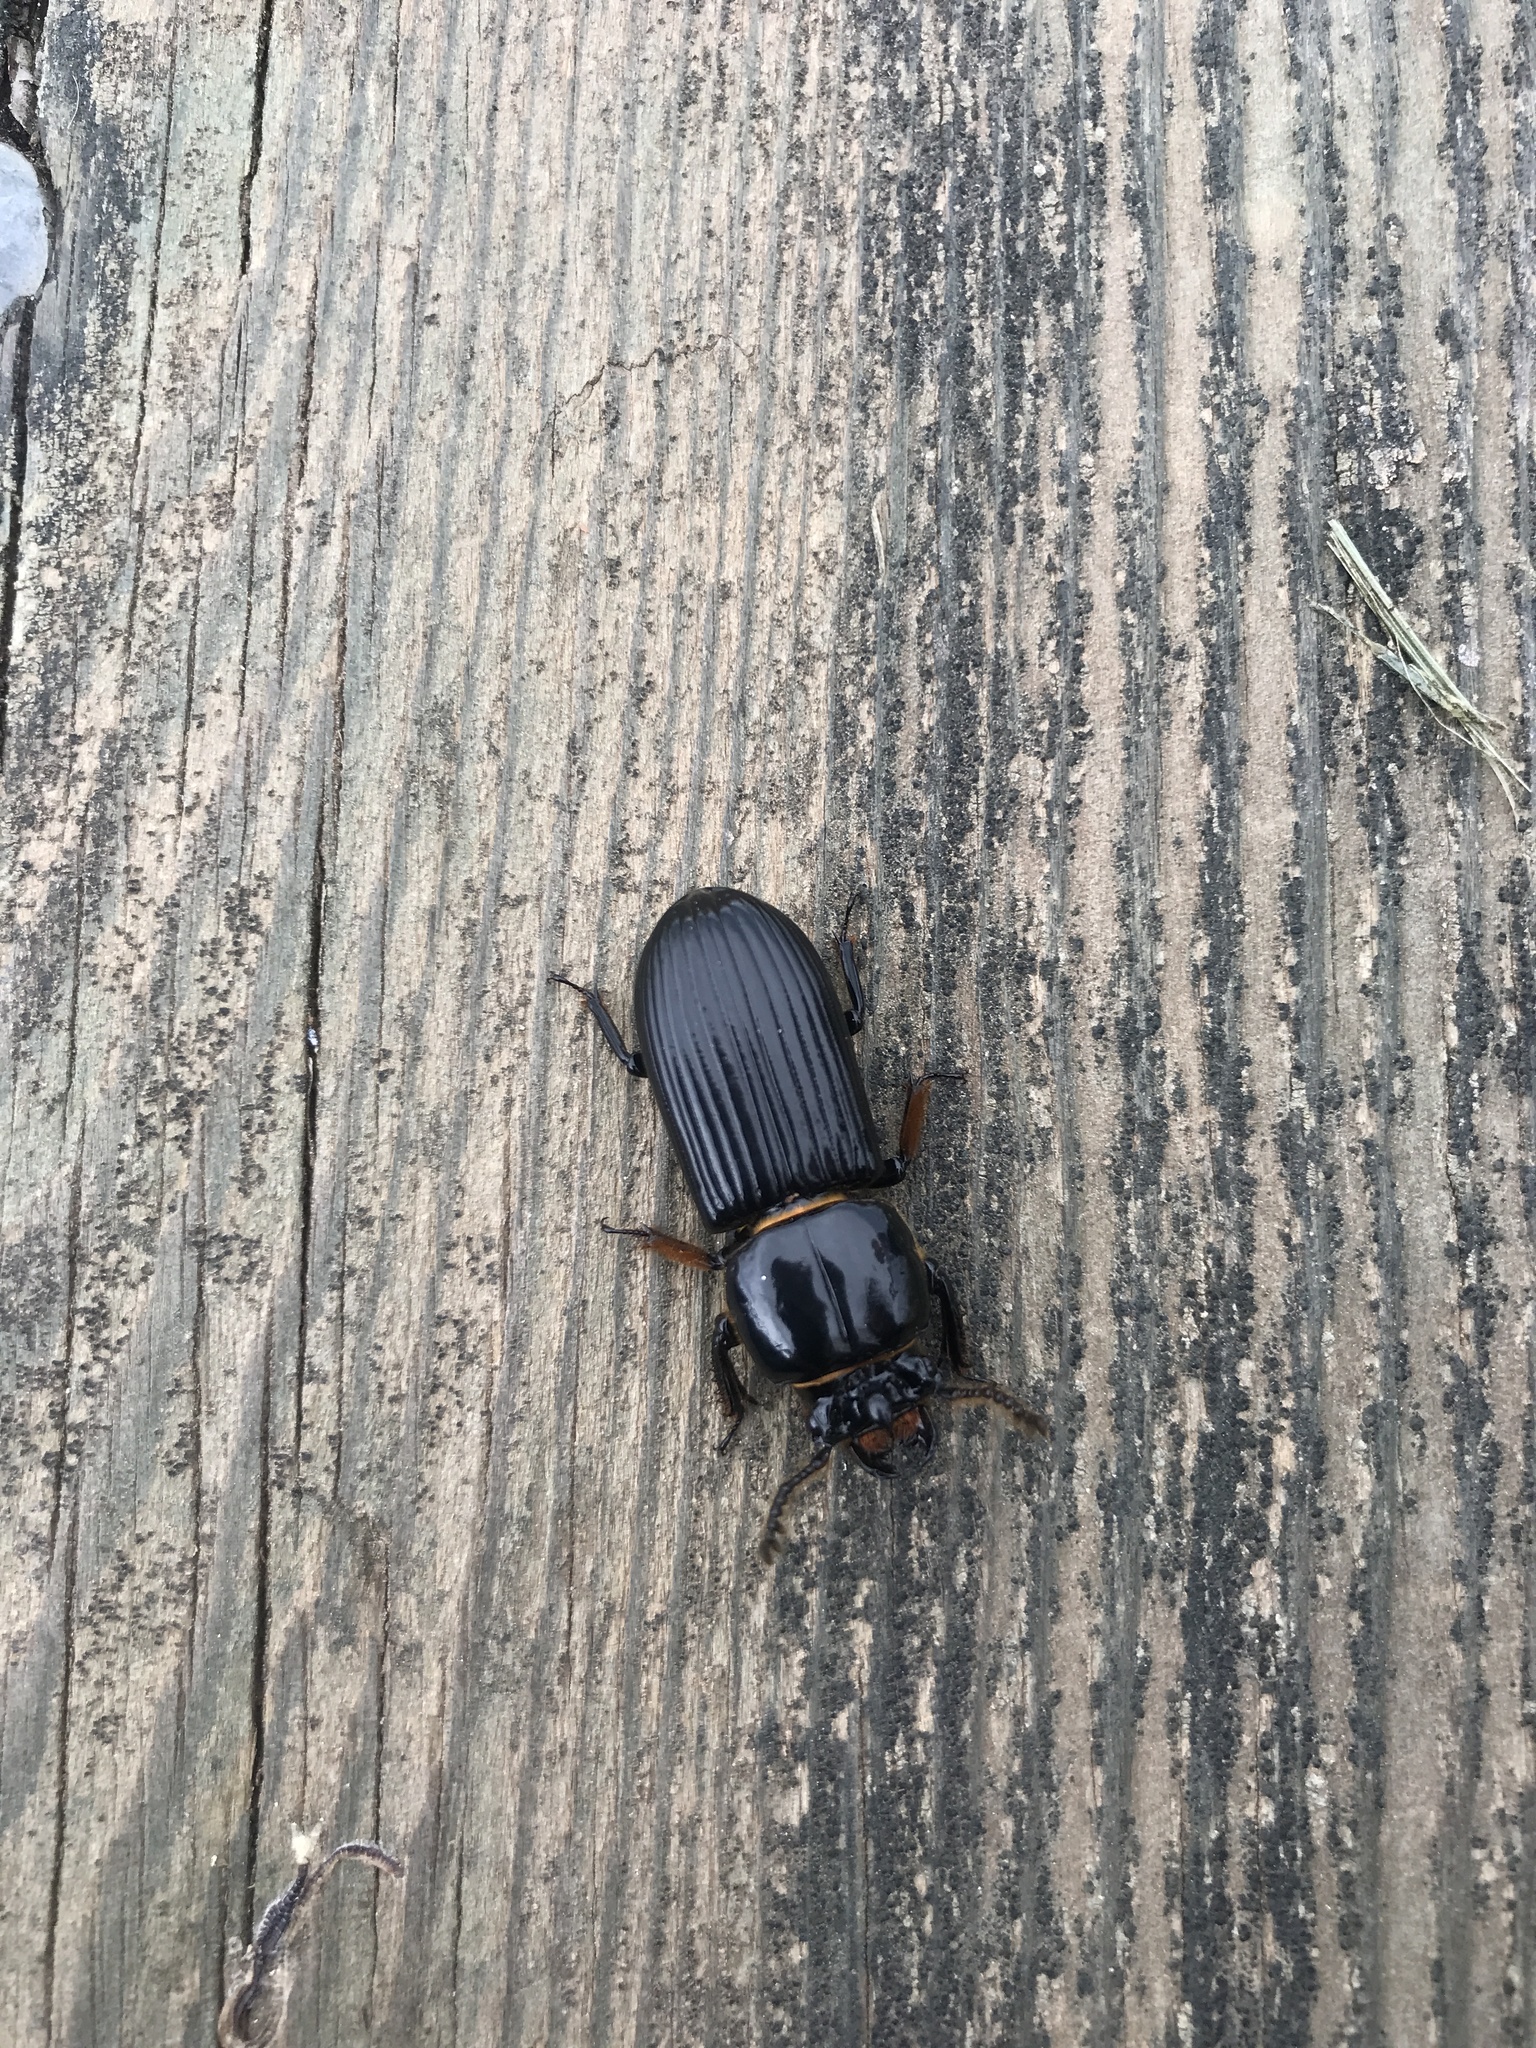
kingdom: Animalia
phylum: Arthropoda
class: Insecta
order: Coleoptera
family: Passalidae
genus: Odontotaenius
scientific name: Odontotaenius disjunctus
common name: Patent leather beetle
